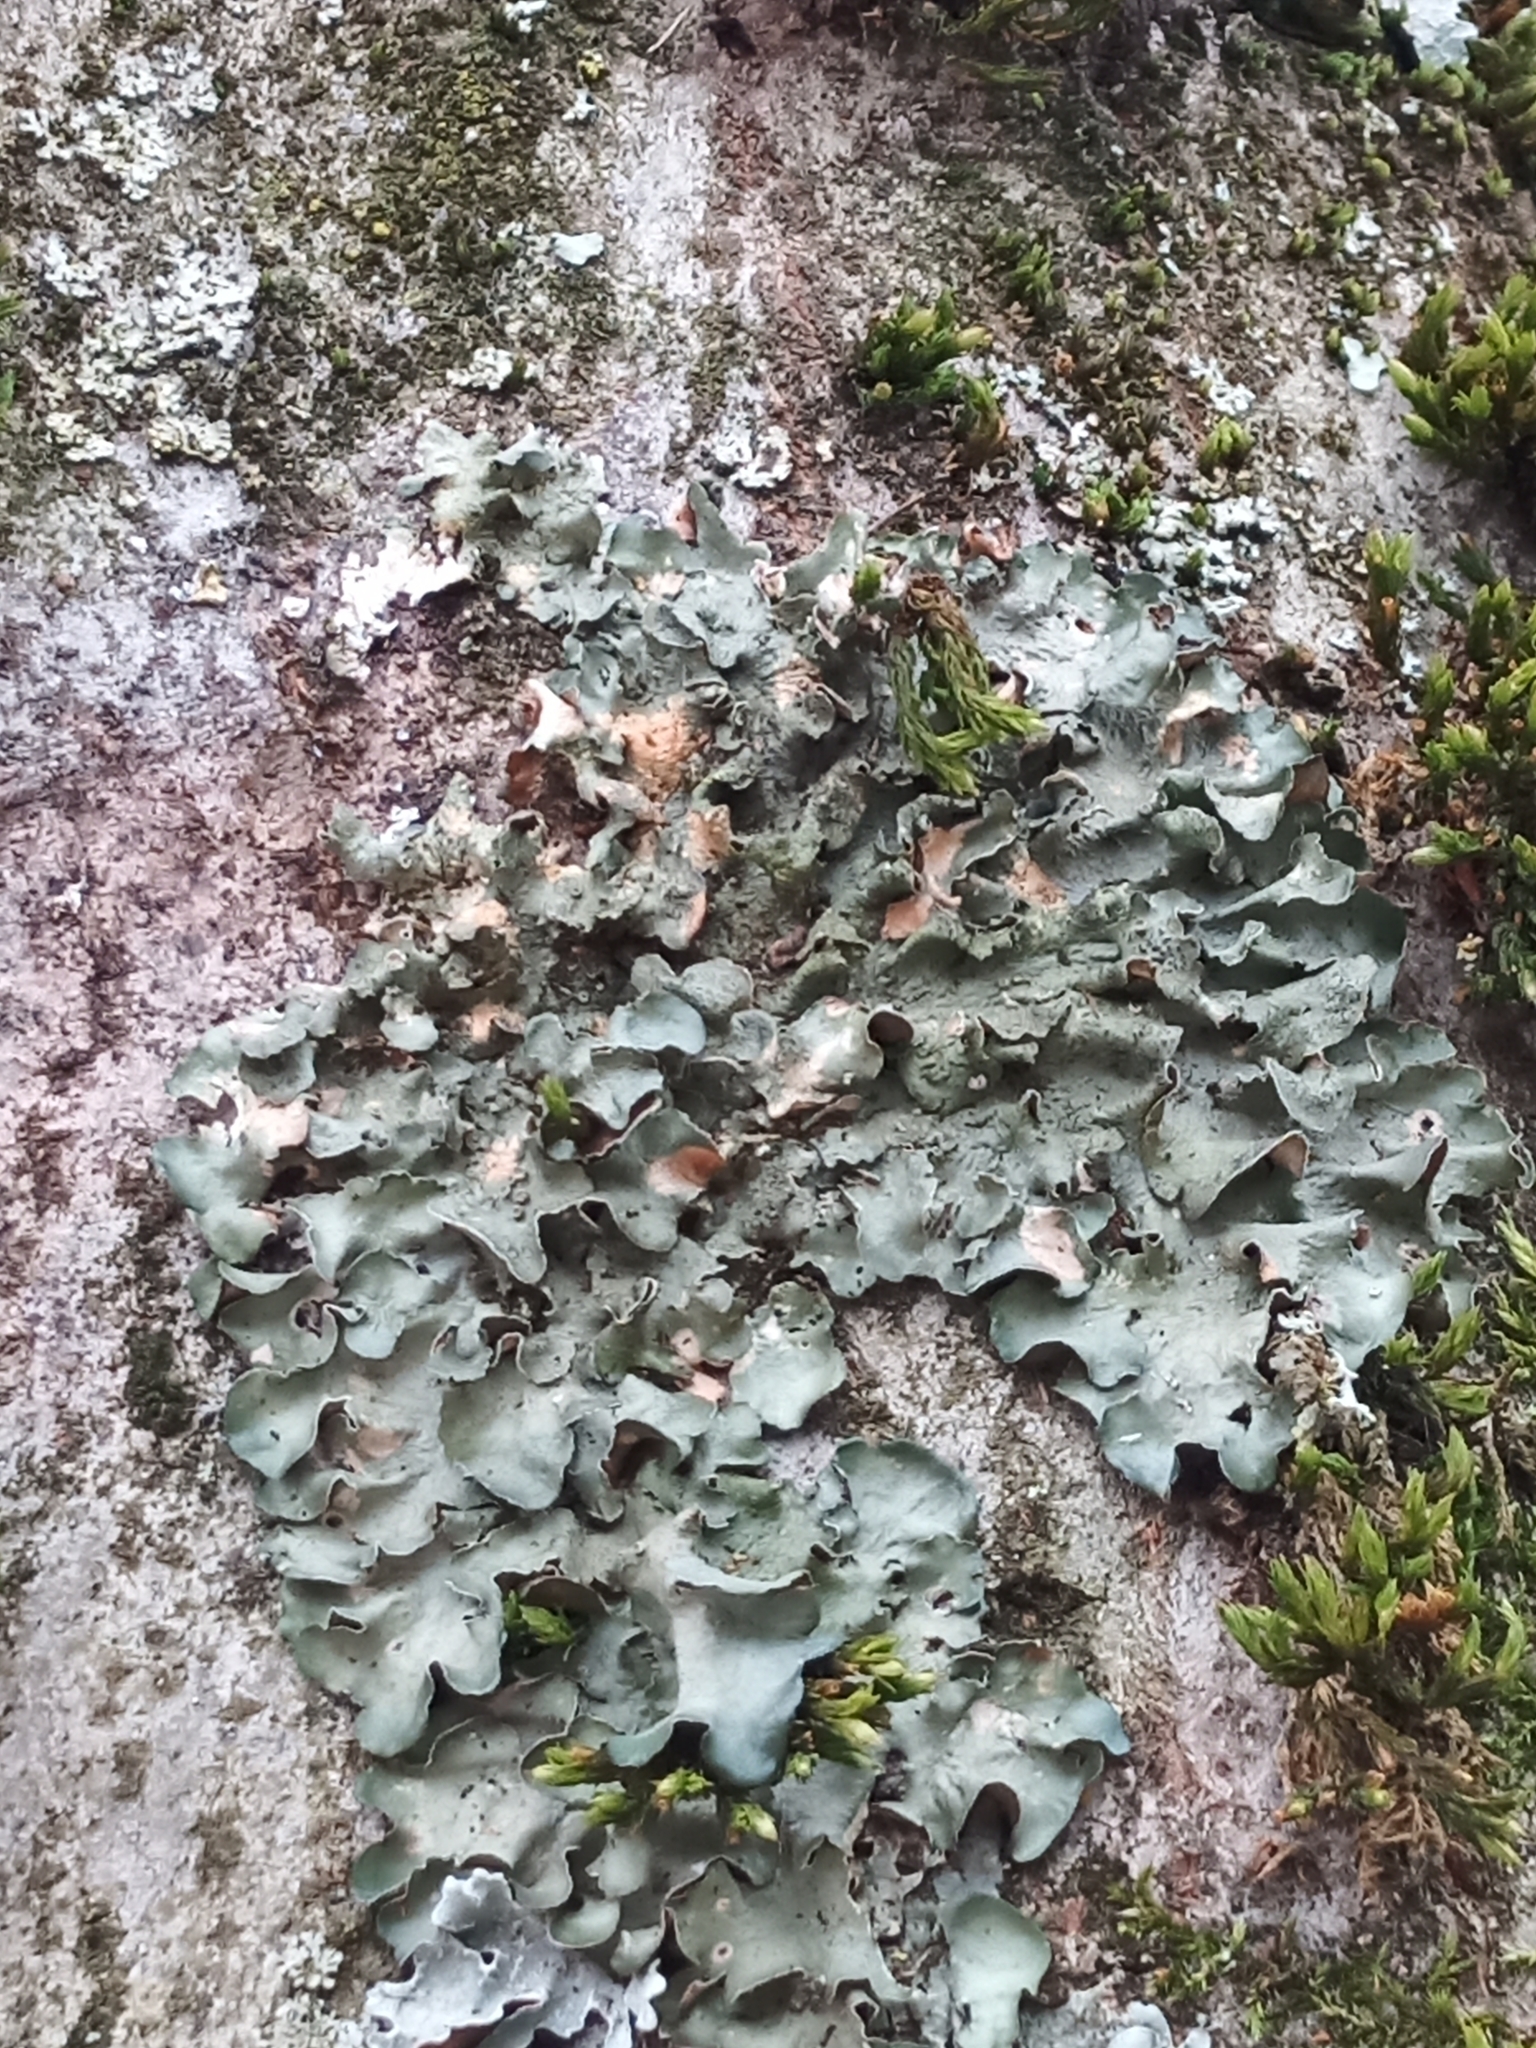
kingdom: Fungi
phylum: Ascomycota
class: Lecanoromycetes
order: Lecanorales
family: Parmeliaceae
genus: Pleurosticta
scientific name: Pleurosticta acetabulum
